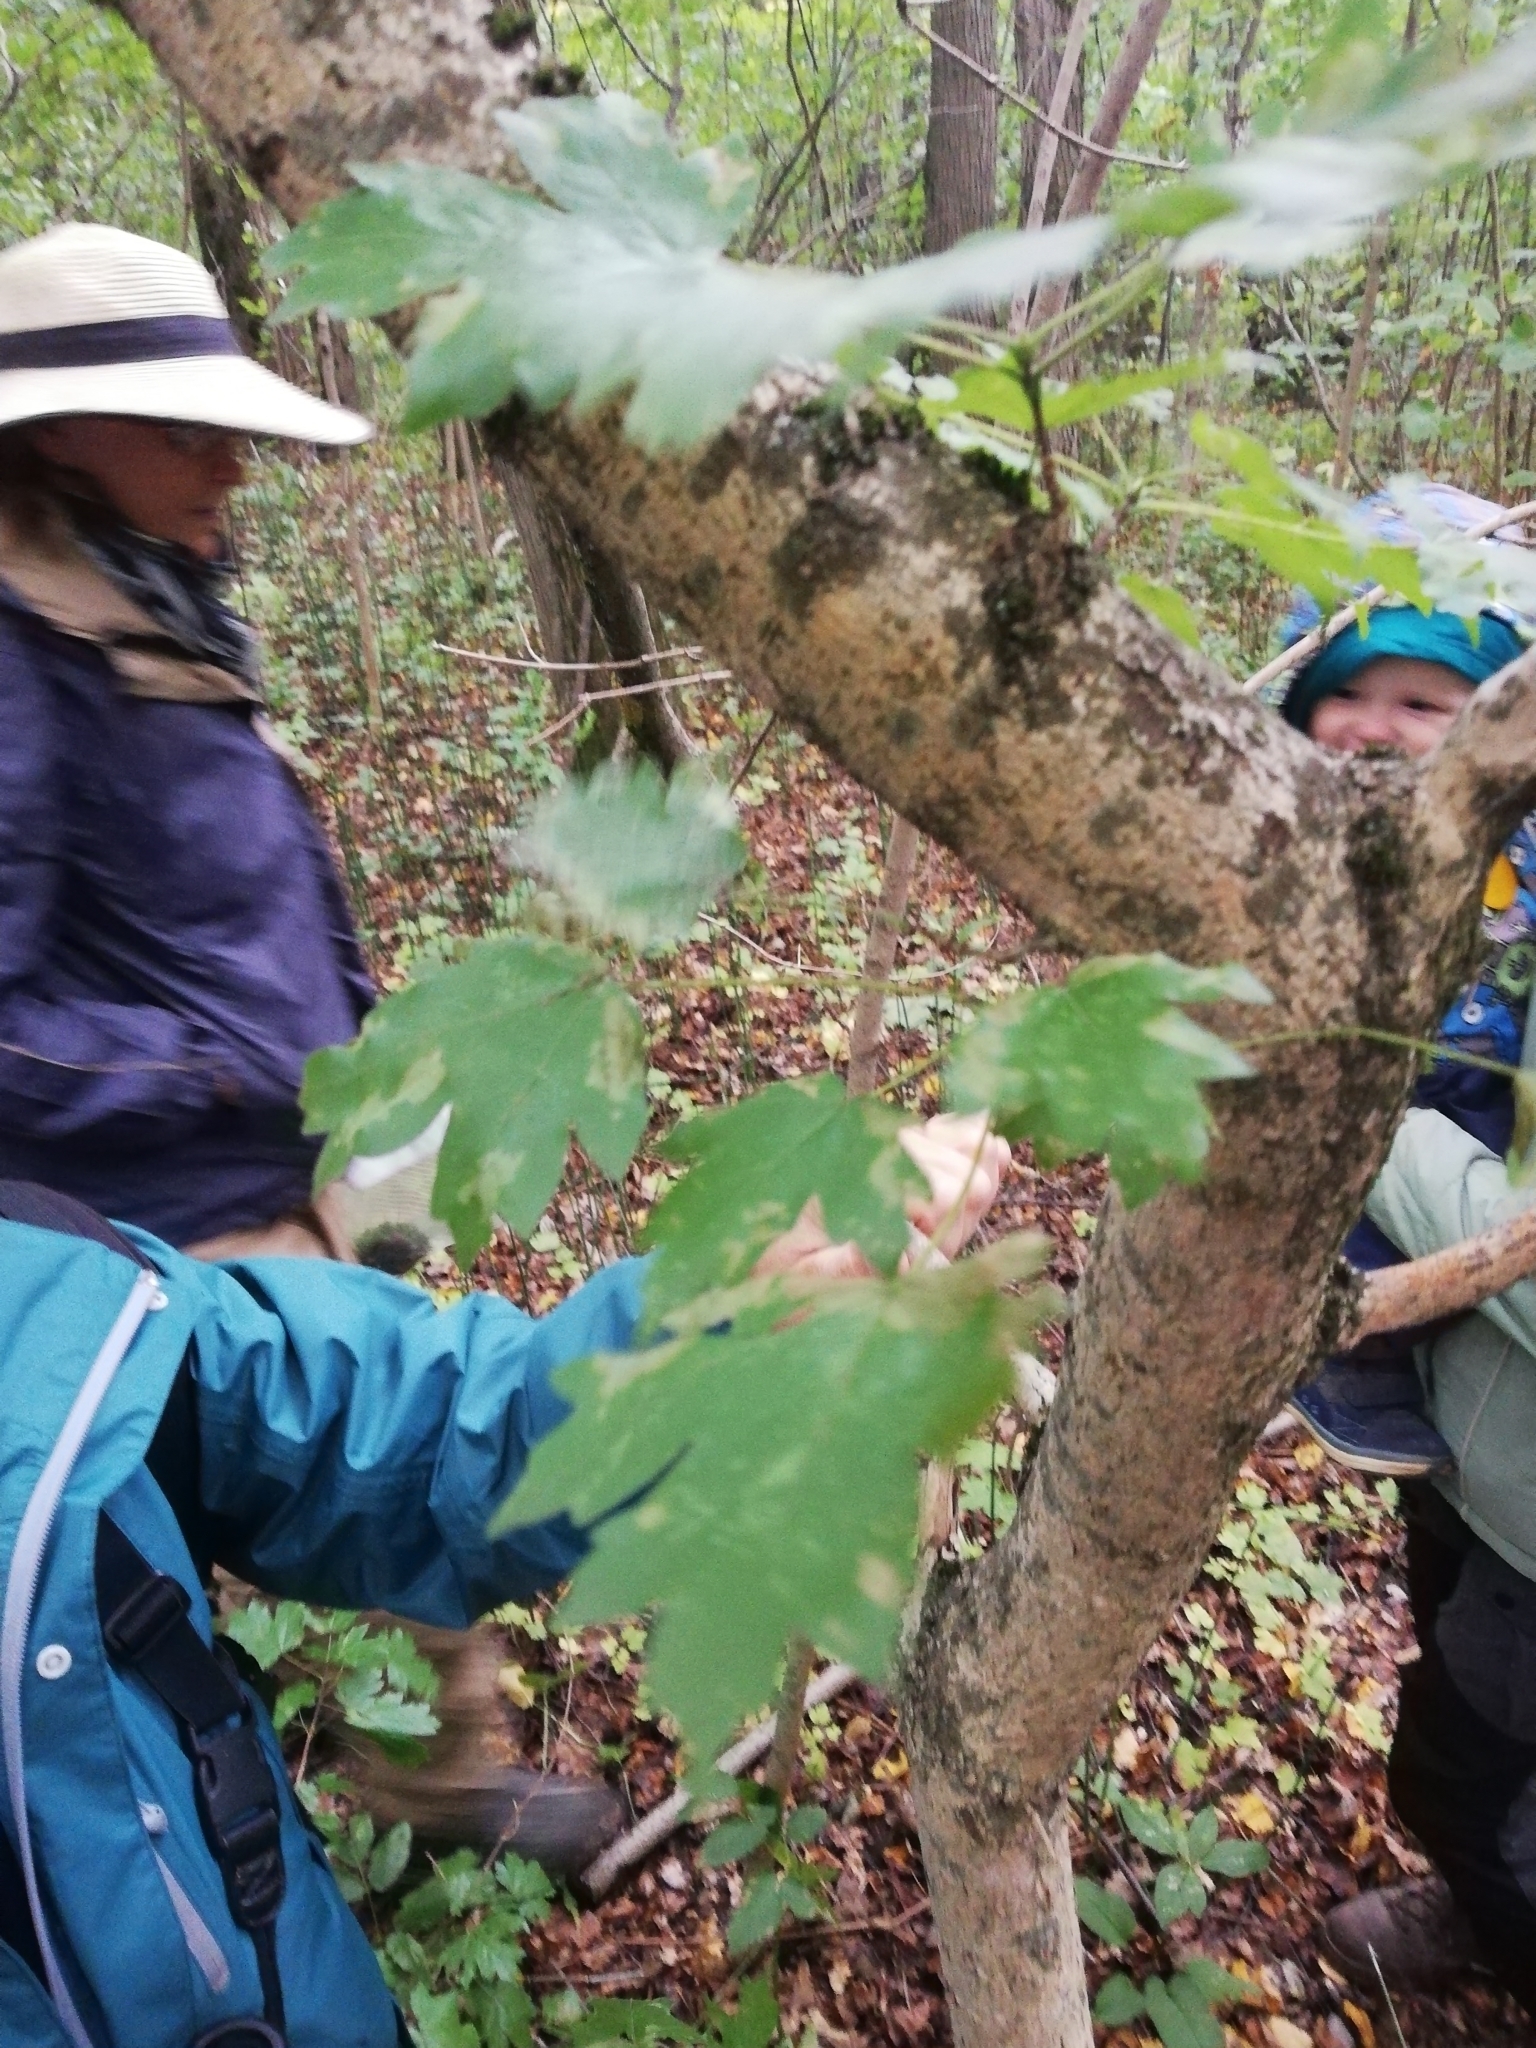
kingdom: Plantae
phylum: Tracheophyta
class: Magnoliopsida
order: Sapindales
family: Sapindaceae
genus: Acer
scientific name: Acer campestre
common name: Field maple
